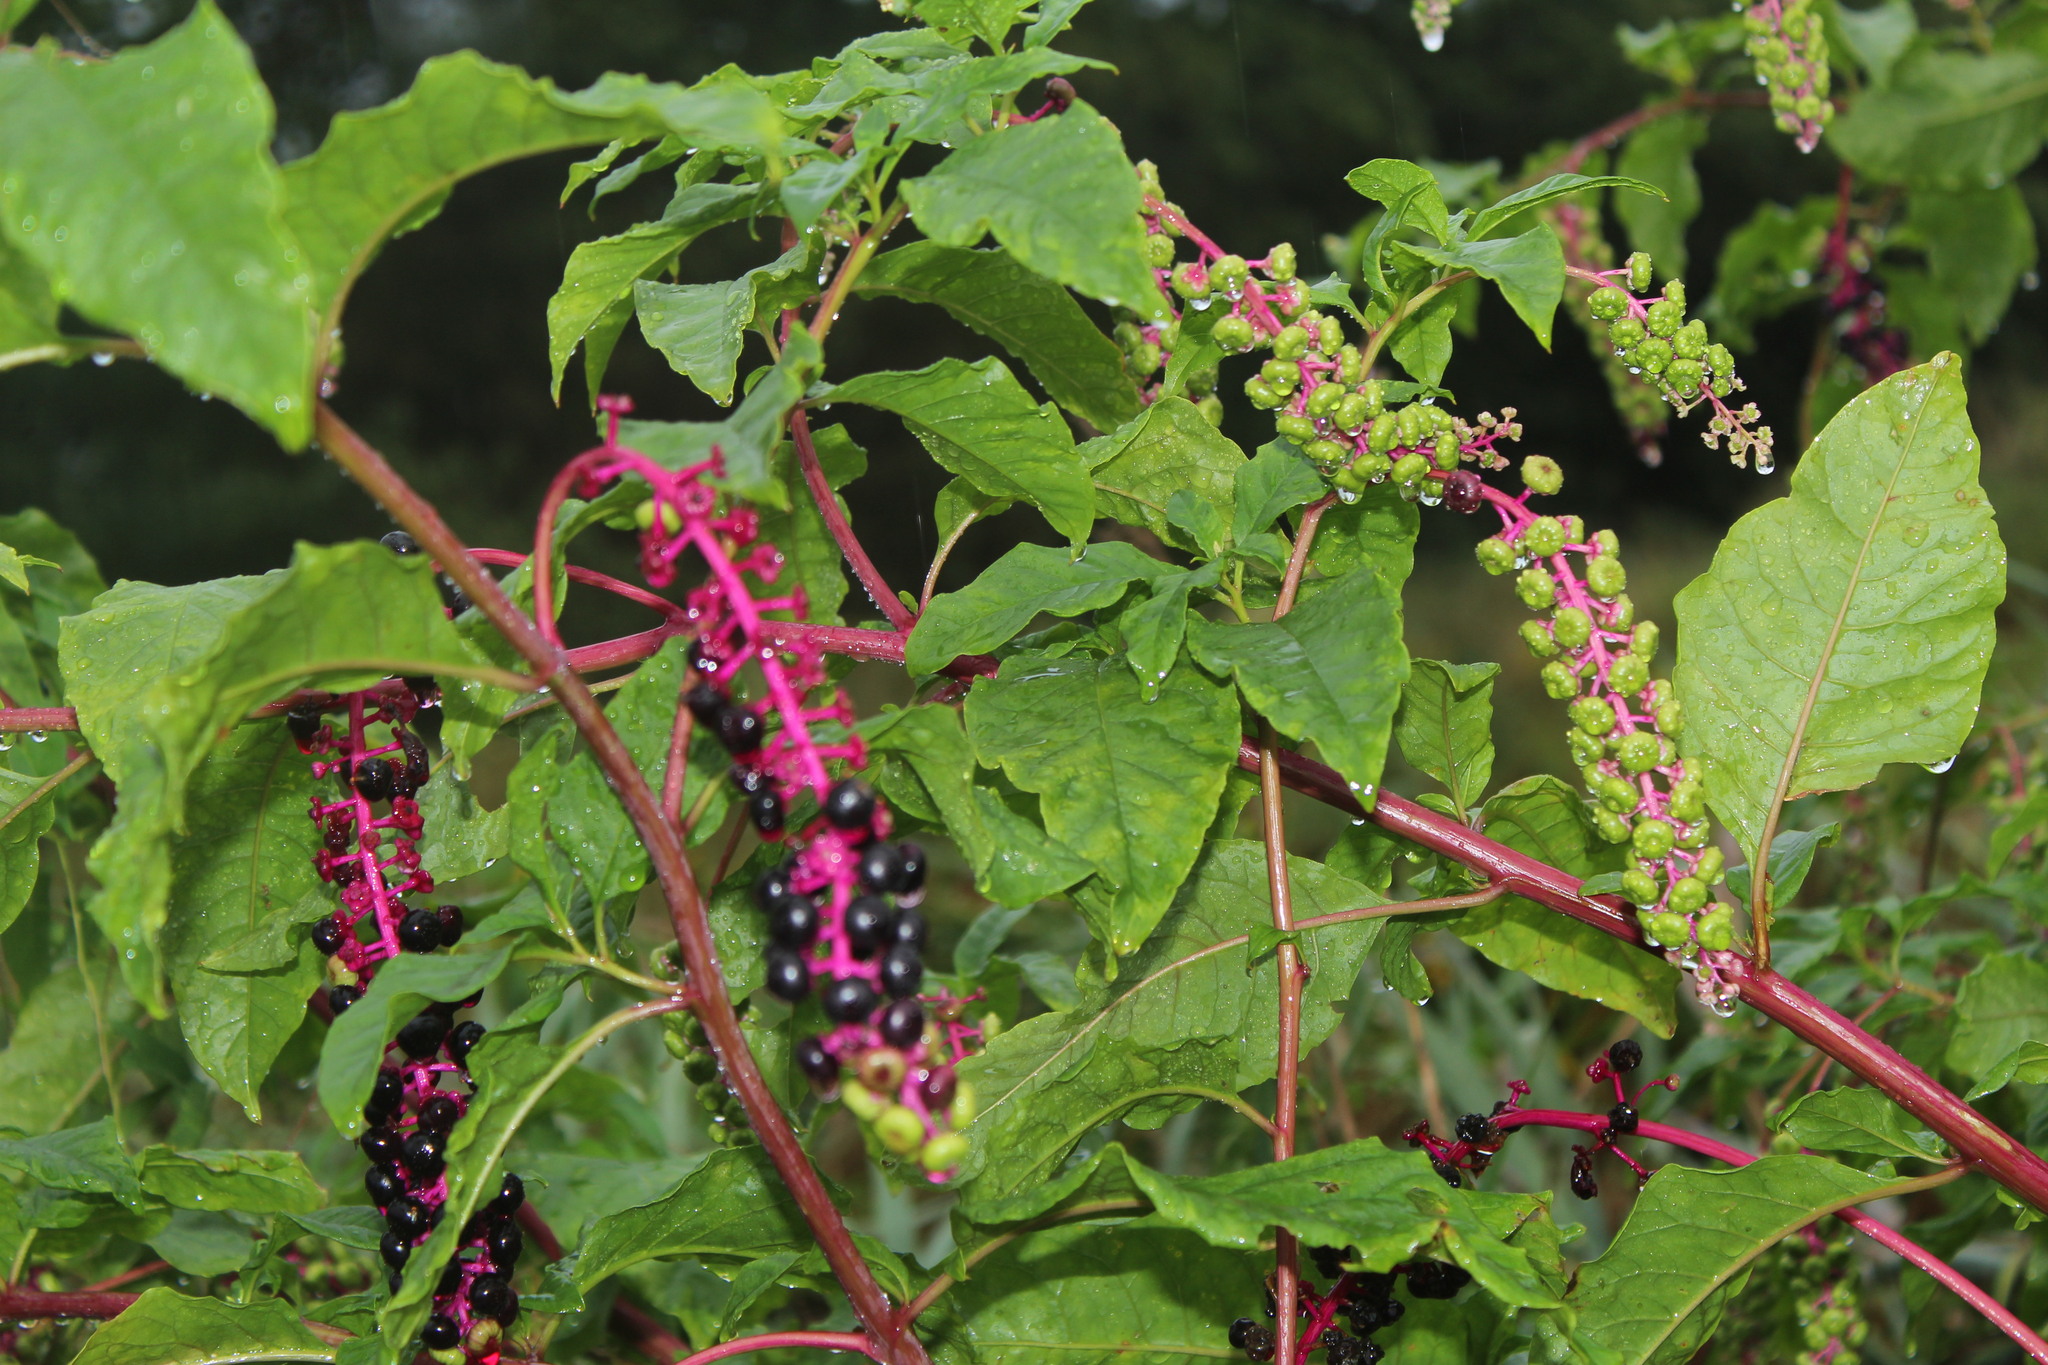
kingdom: Viruses
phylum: Pisuviricota
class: Stelpaviricetes
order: Patatavirales
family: Potyviridae
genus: Potyvirus
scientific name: Potyvirus Pokeweed mosaic virus
